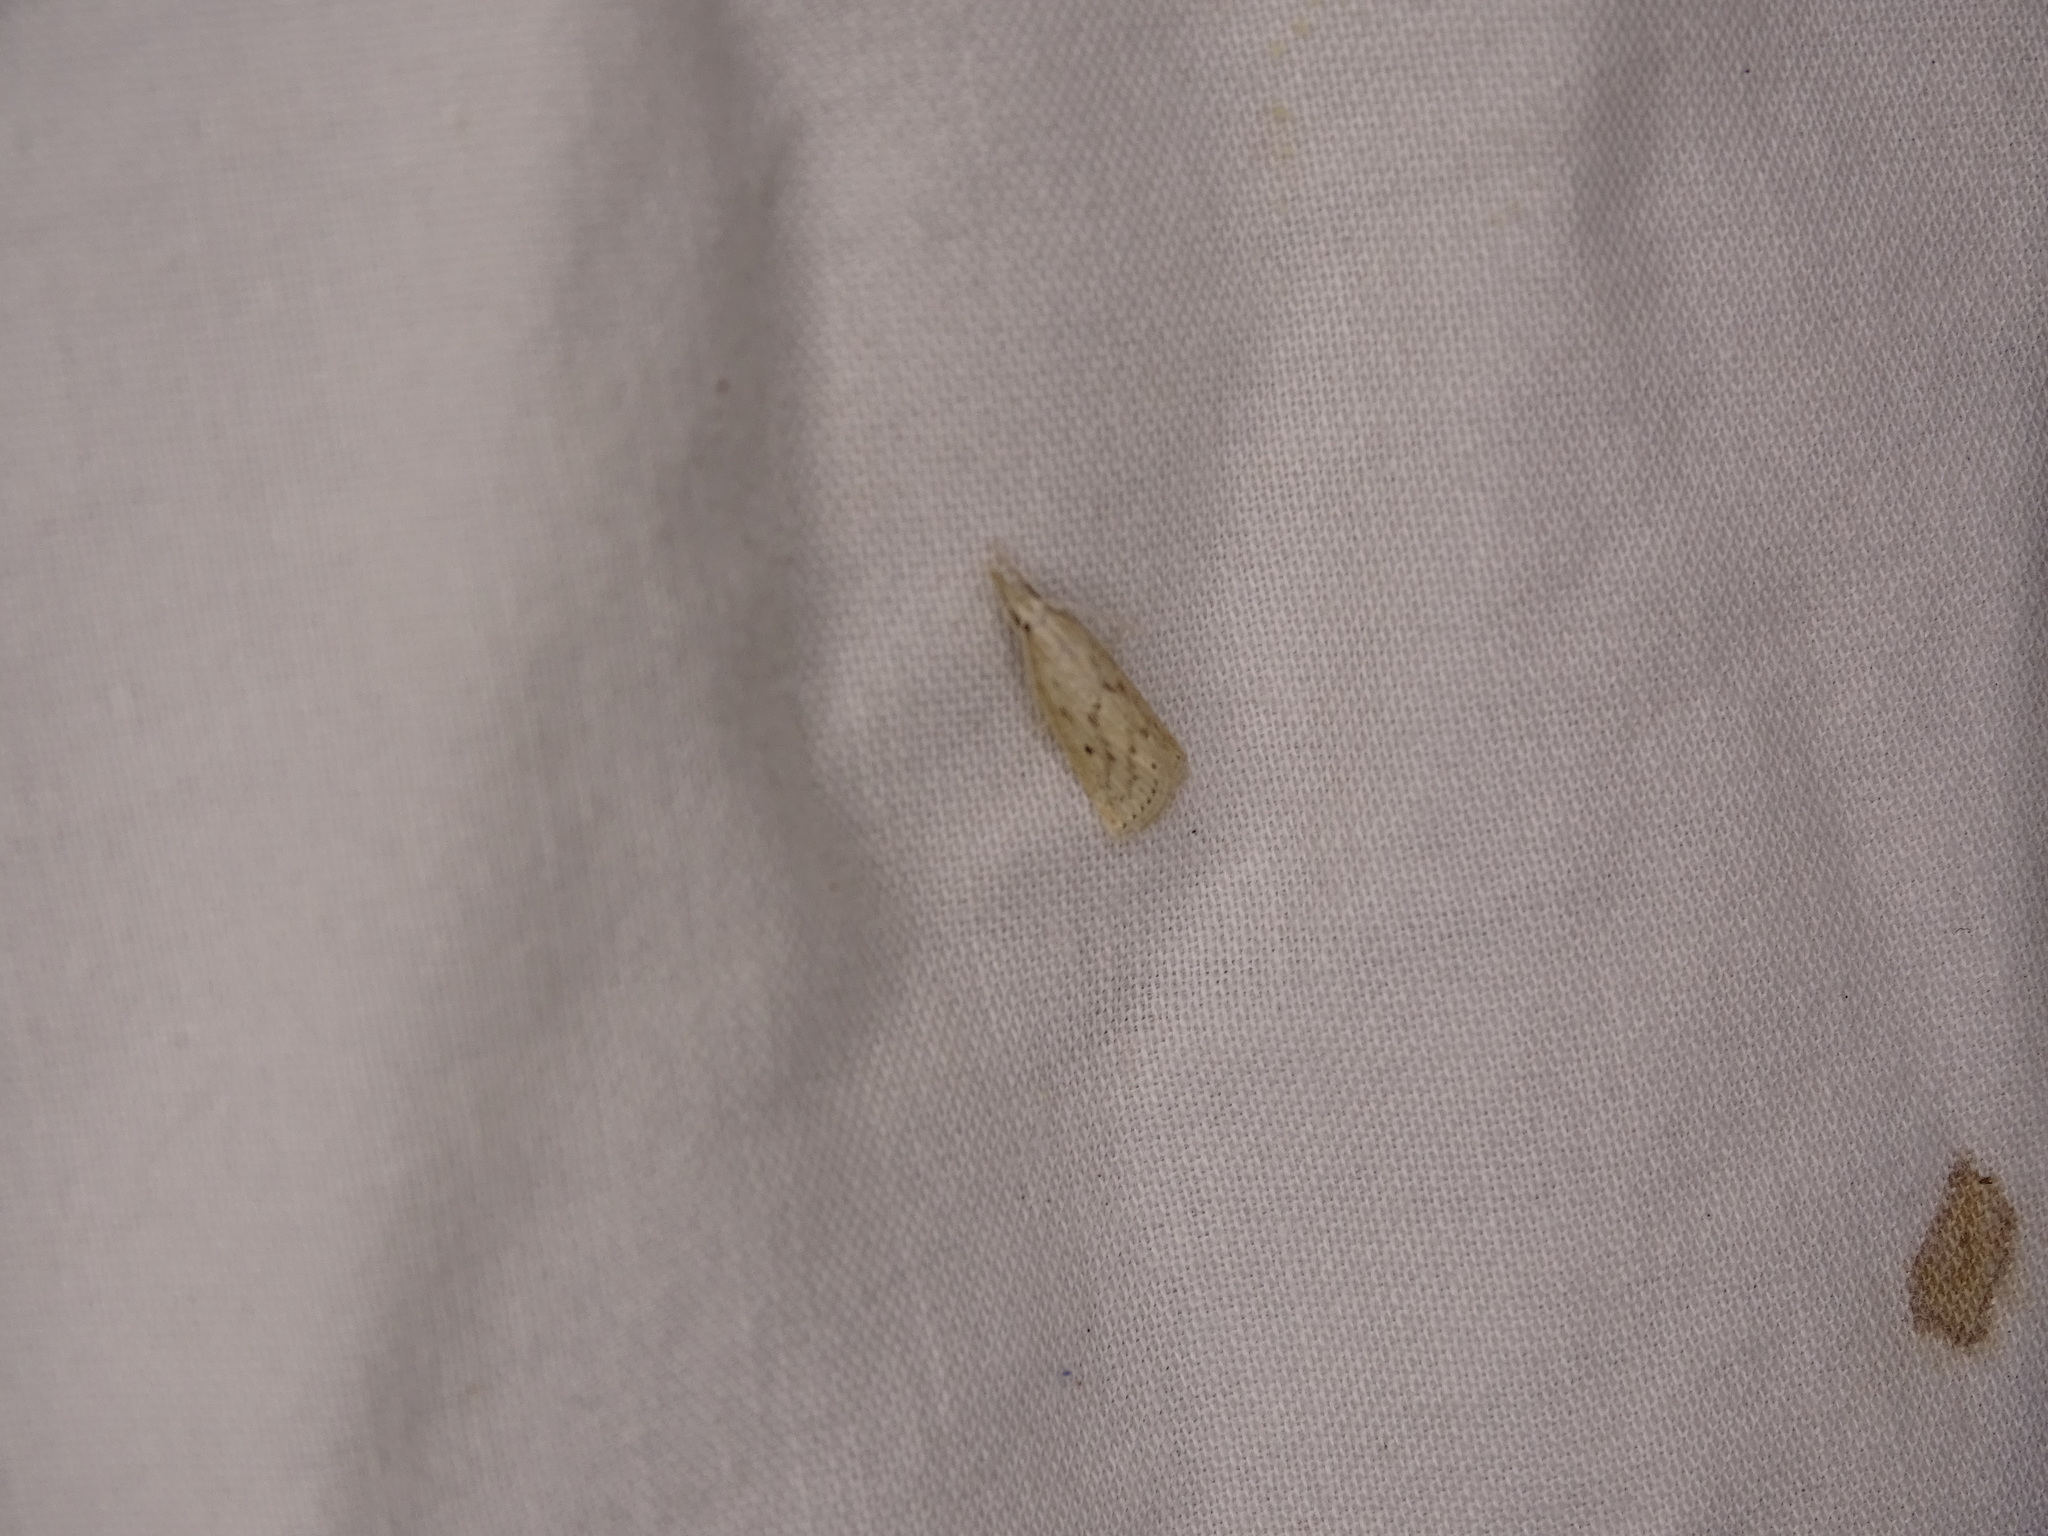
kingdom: Animalia
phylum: Arthropoda
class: Insecta
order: Lepidoptera
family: Crambidae
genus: Diatraea
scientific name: Diatraea lisetta
